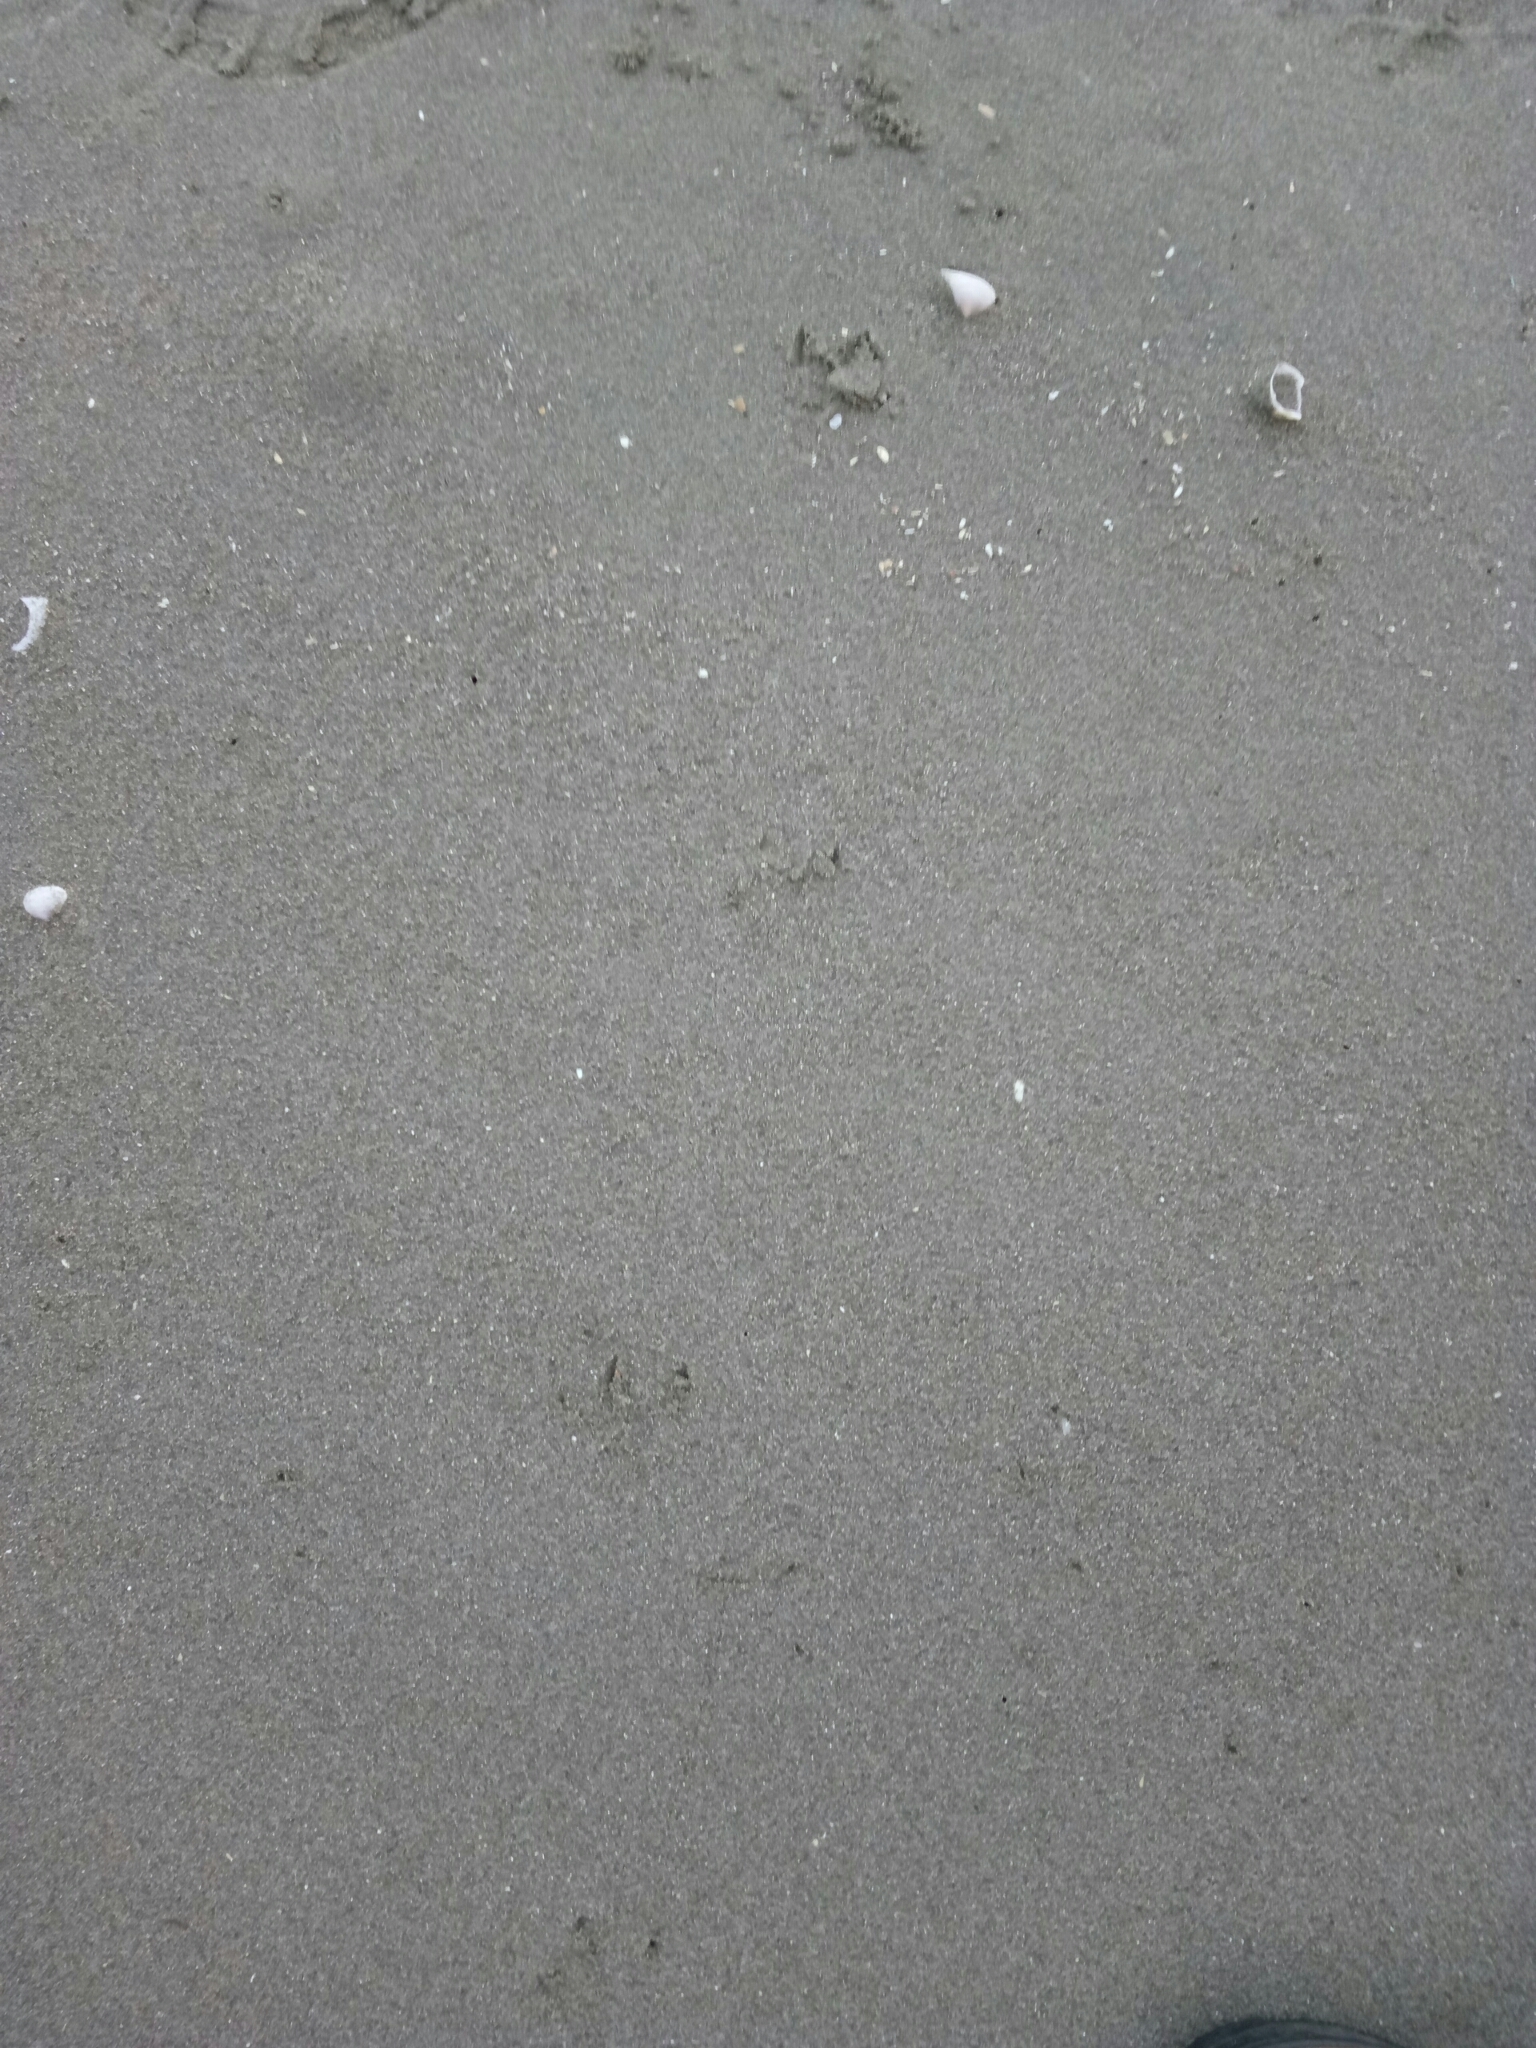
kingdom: Animalia
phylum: Chordata
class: Aves
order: Sphenisciformes
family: Spheniscidae
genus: Eudyptula
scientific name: Eudyptula minor
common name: Little penguin
